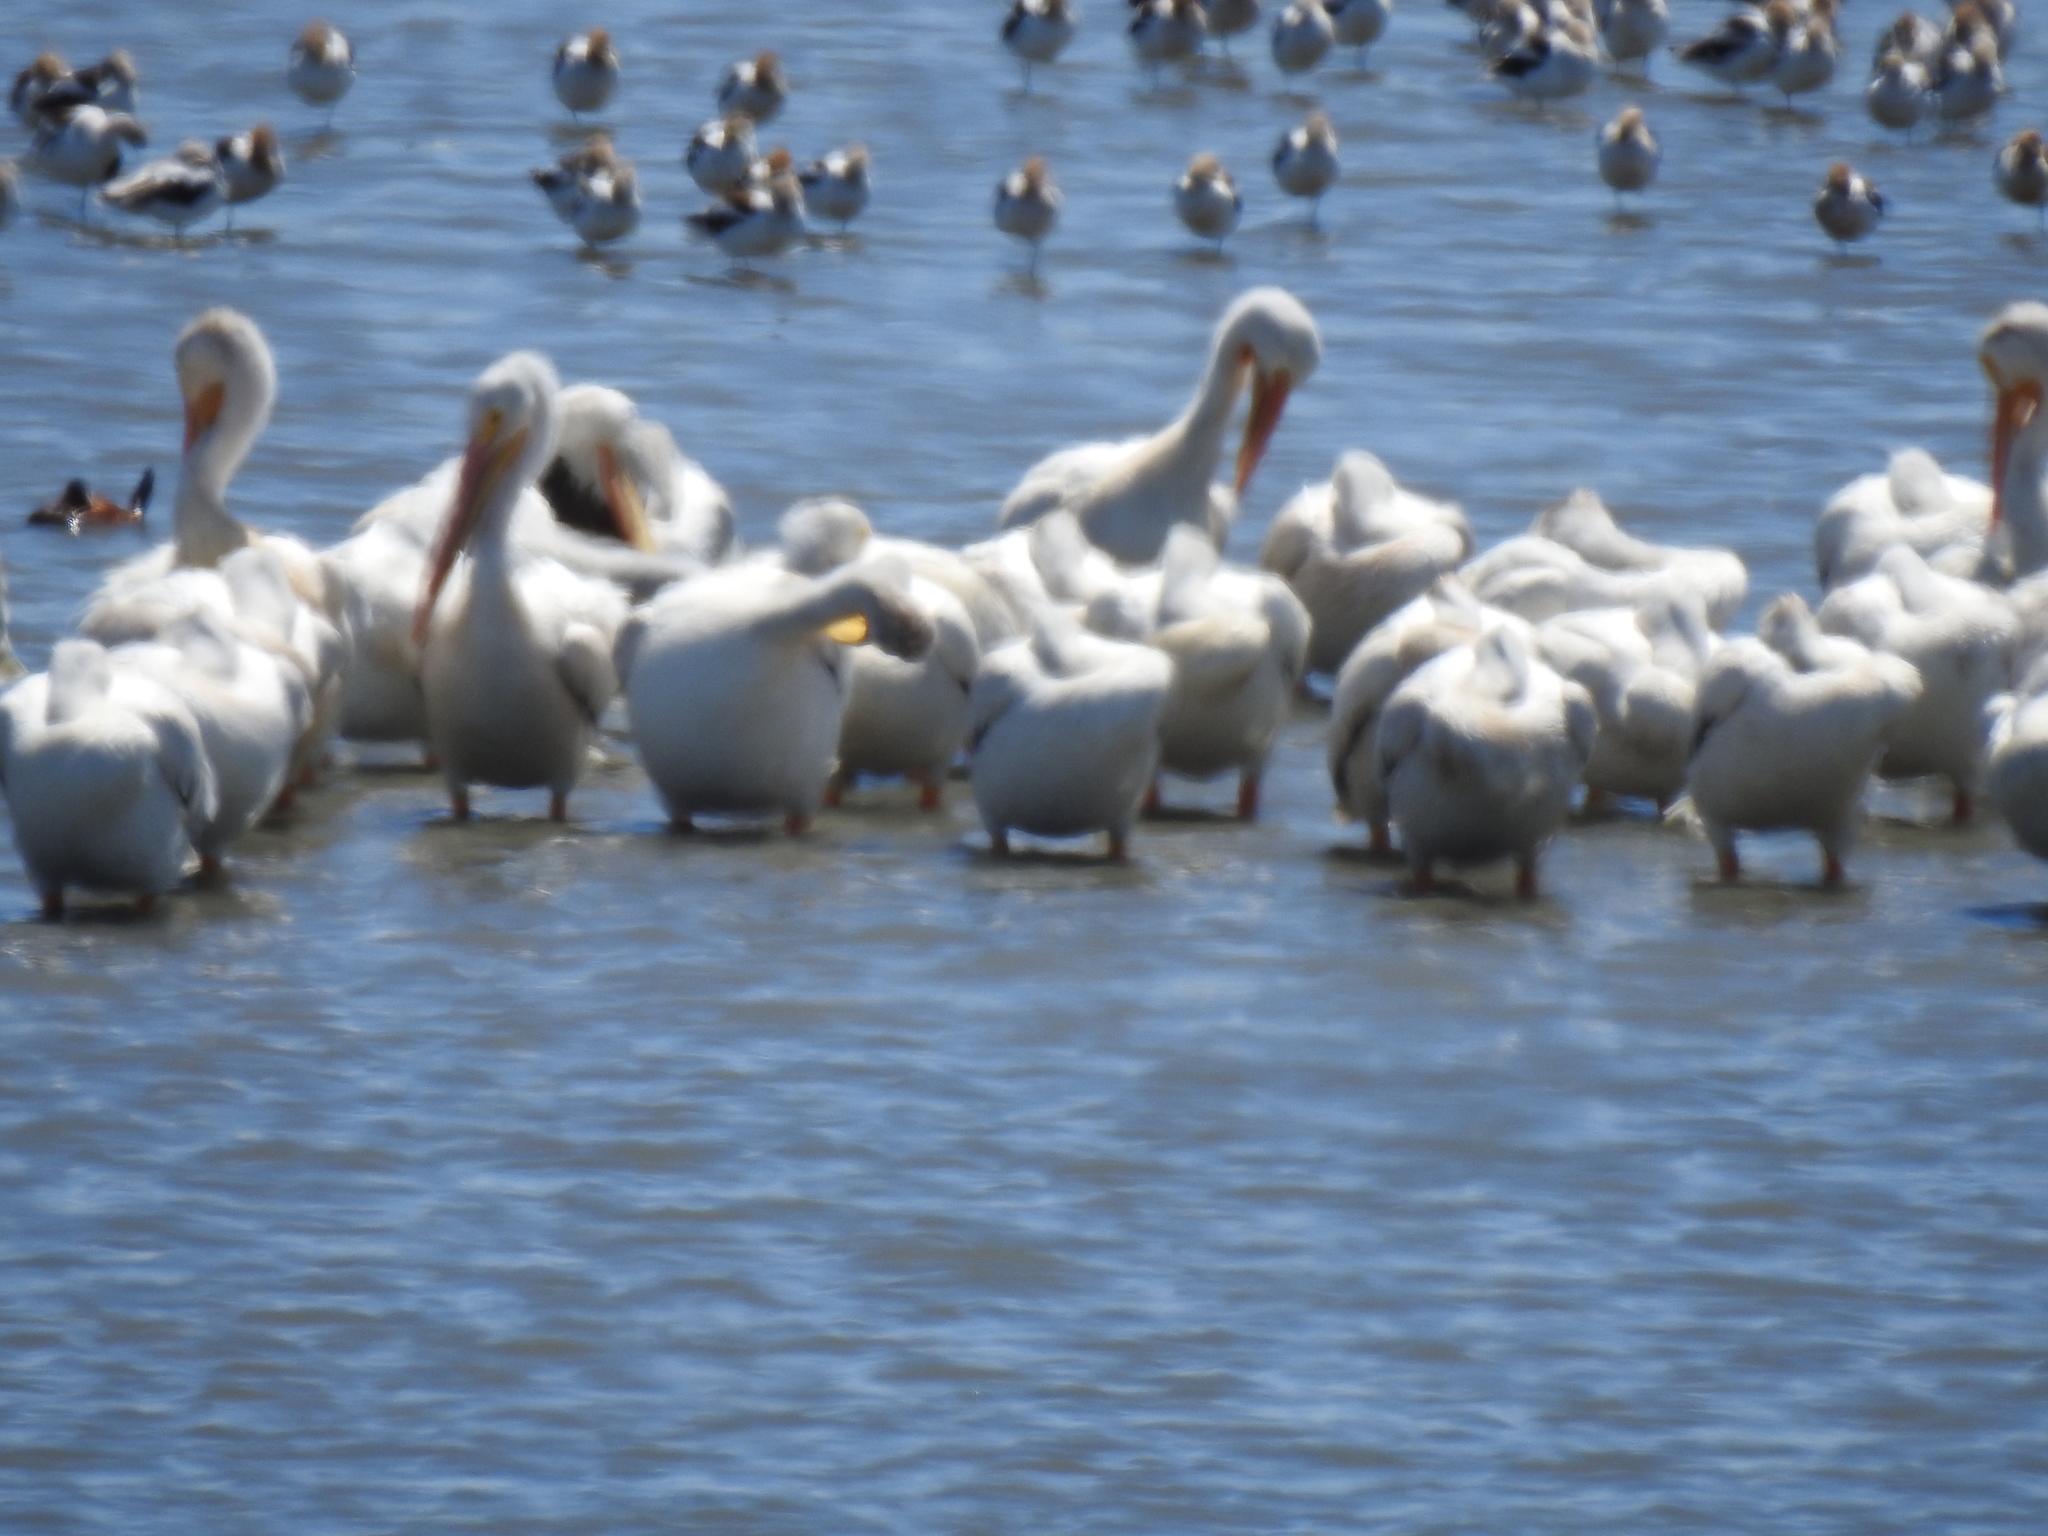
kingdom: Animalia
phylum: Chordata
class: Aves
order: Pelecaniformes
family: Pelecanidae
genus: Pelecanus
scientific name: Pelecanus erythrorhynchos
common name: American white pelican
